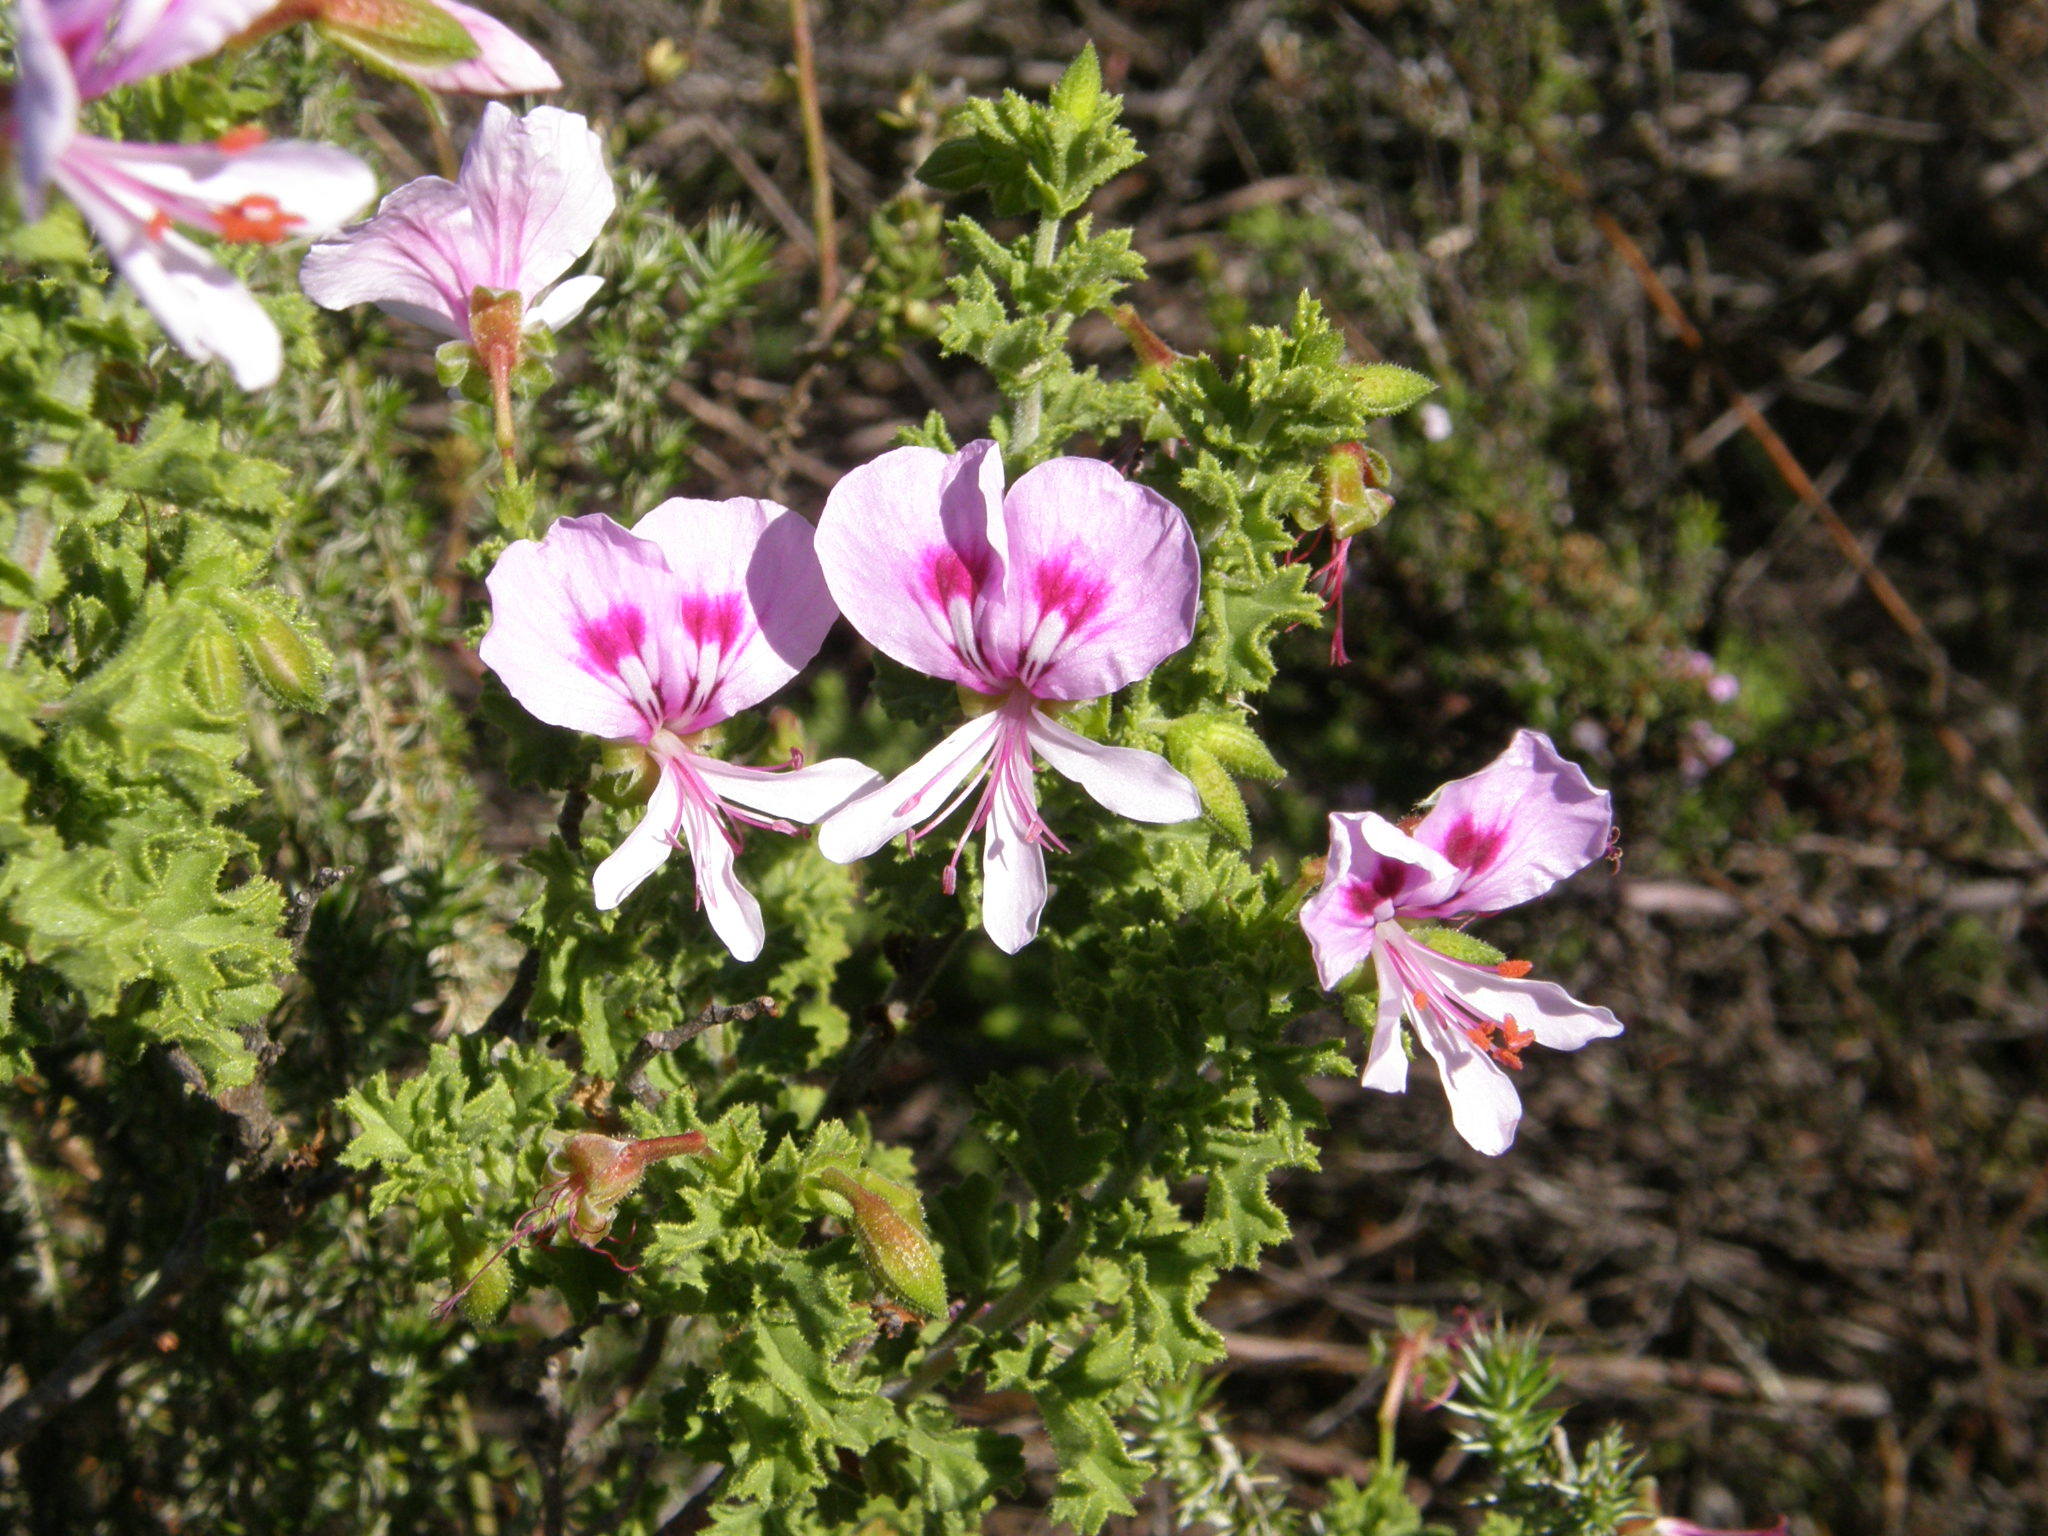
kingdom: Plantae
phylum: Tracheophyta
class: Magnoliopsida
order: Geraniales
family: Geraniaceae
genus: Pelargonium
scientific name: Pelargonium crispum
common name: Crisped-leaf pelargonium
